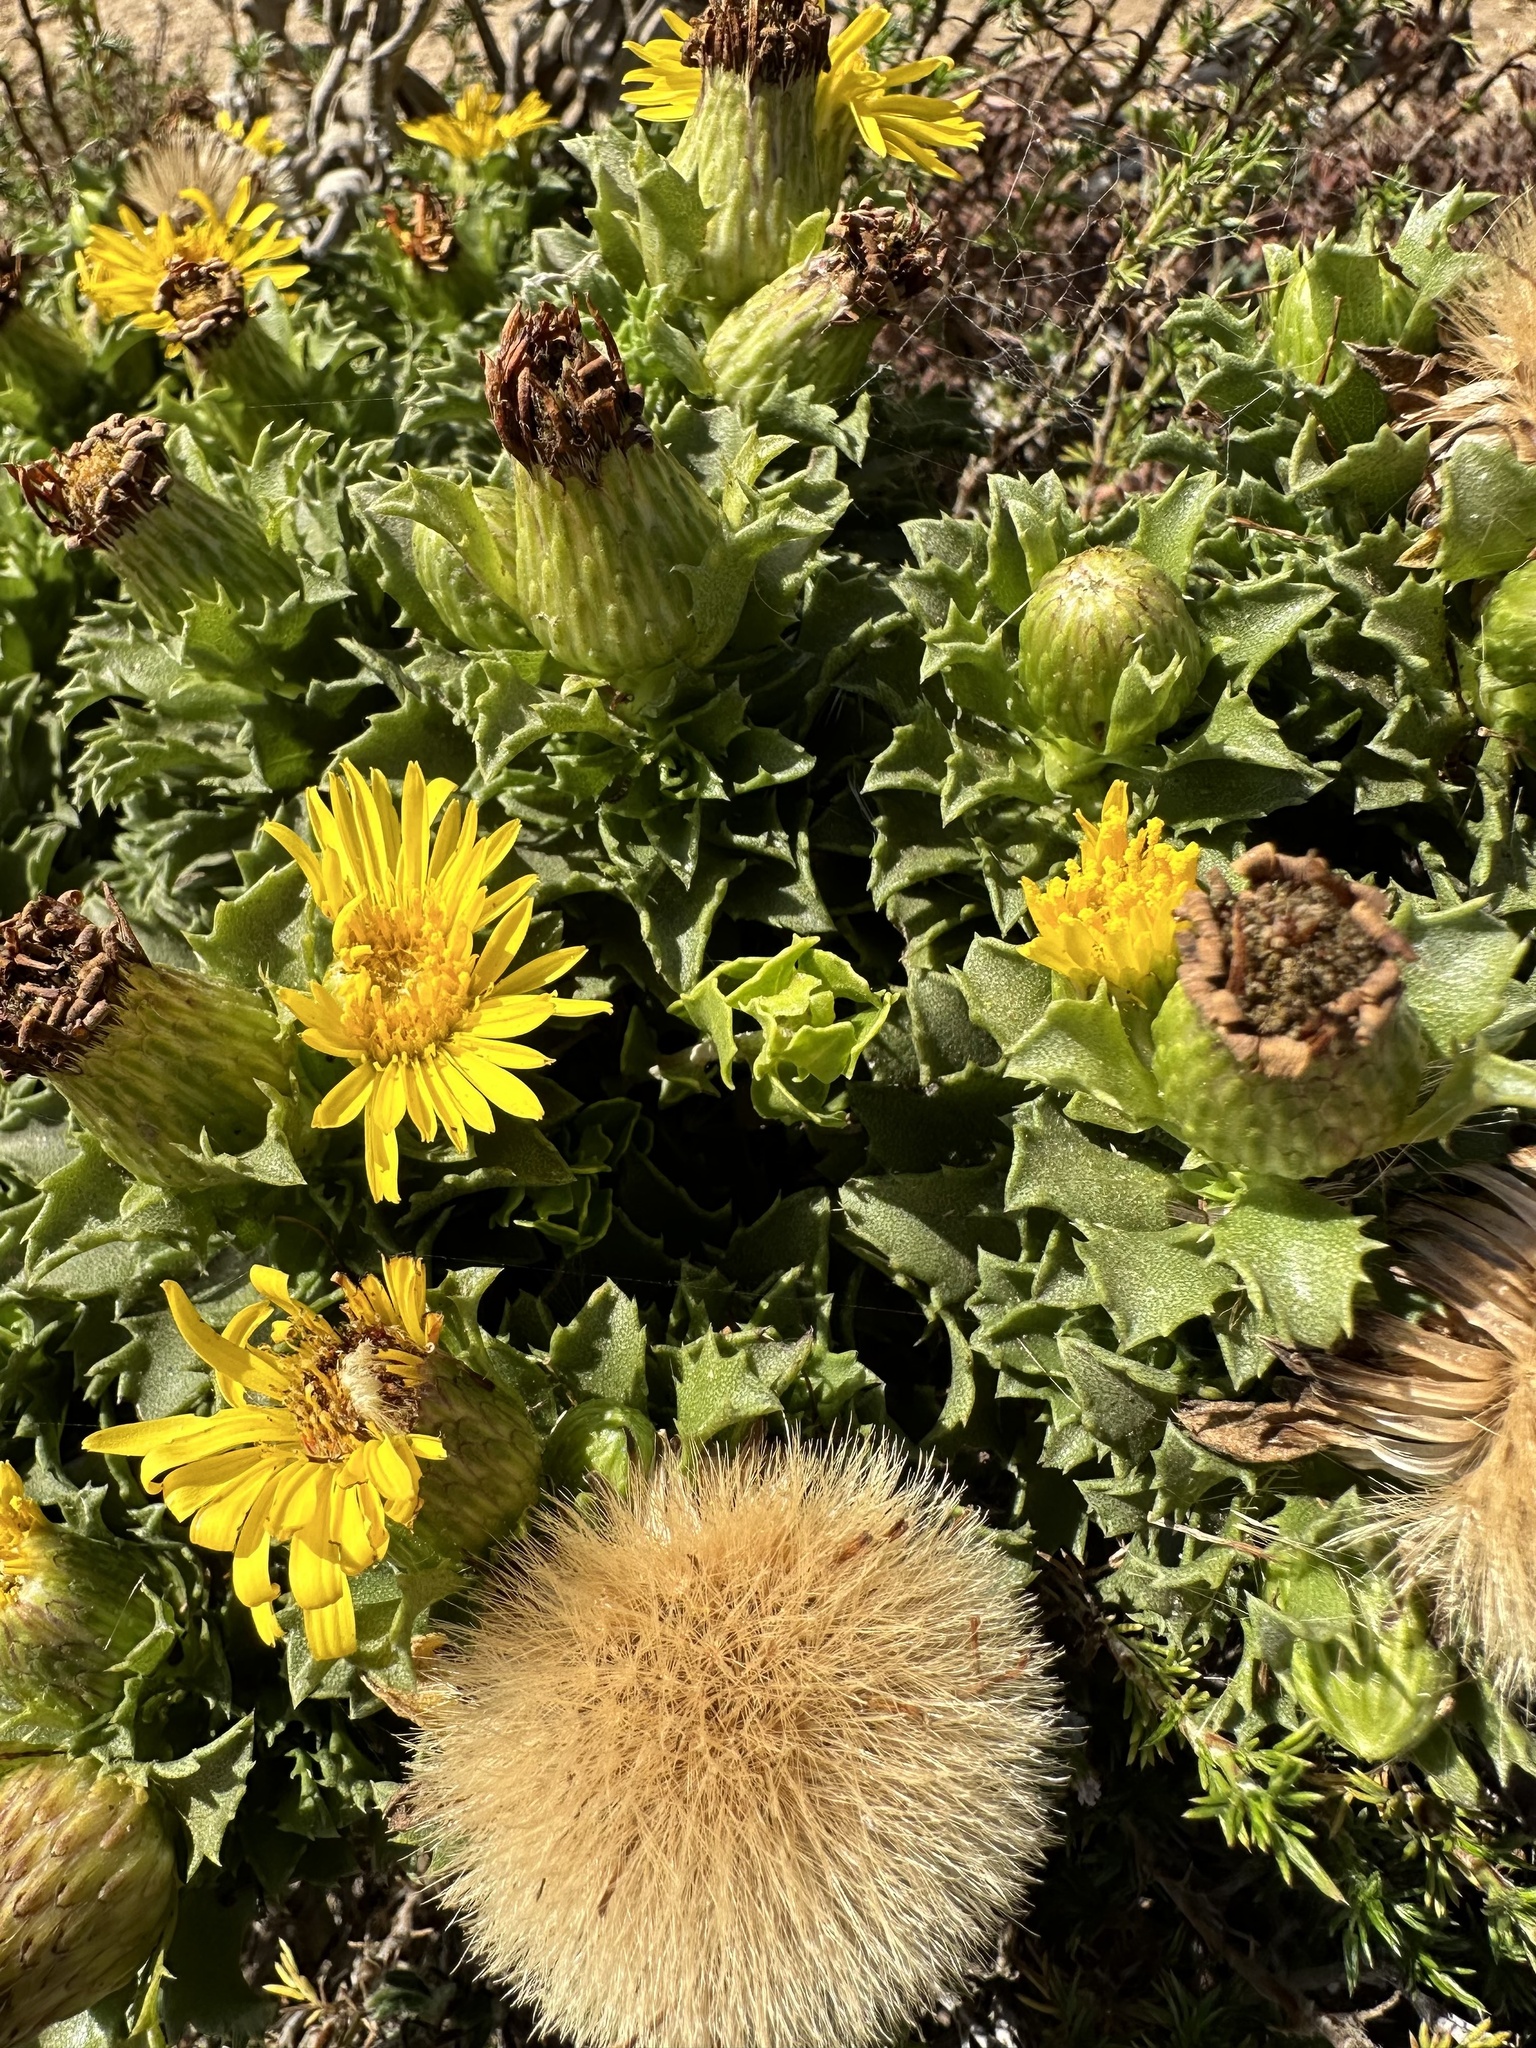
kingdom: Plantae
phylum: Tracheophyta
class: Magnoliopsida
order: Asterales
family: Asteraceae
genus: Haplopappus
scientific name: Haplopappus foliosus
